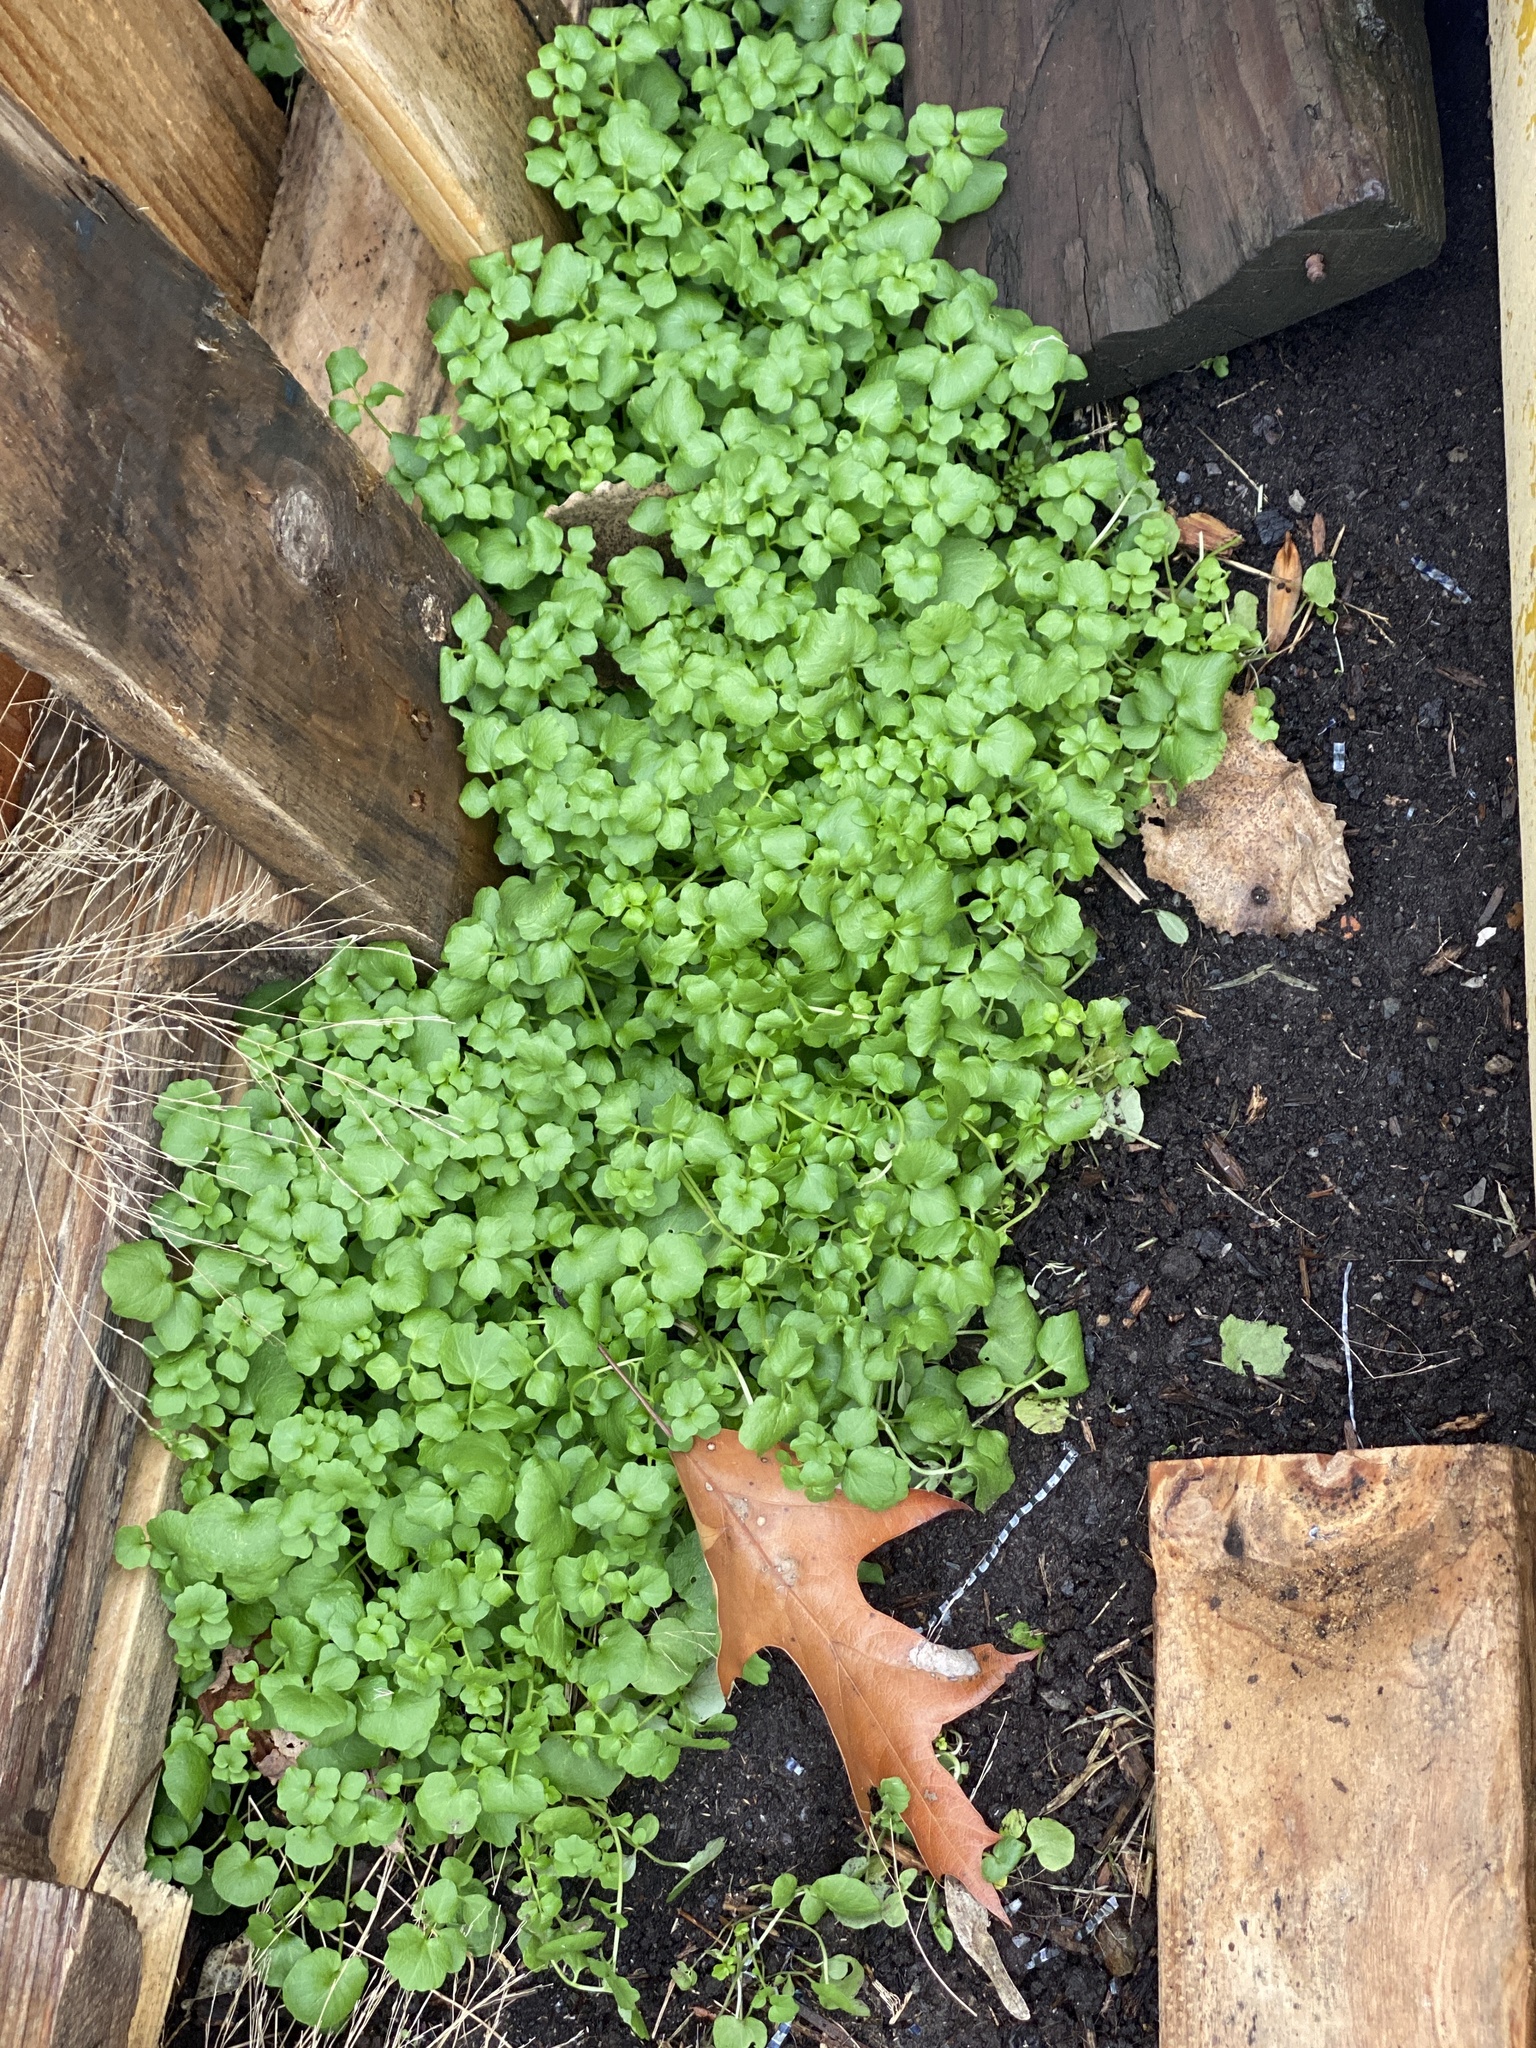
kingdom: Plantae
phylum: Tracheophyta
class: Magnoliopsida
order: Brassicales
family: Brassicaceae
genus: Cardamine
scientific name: Cardamine hirsuta
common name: Hairy bittercress
